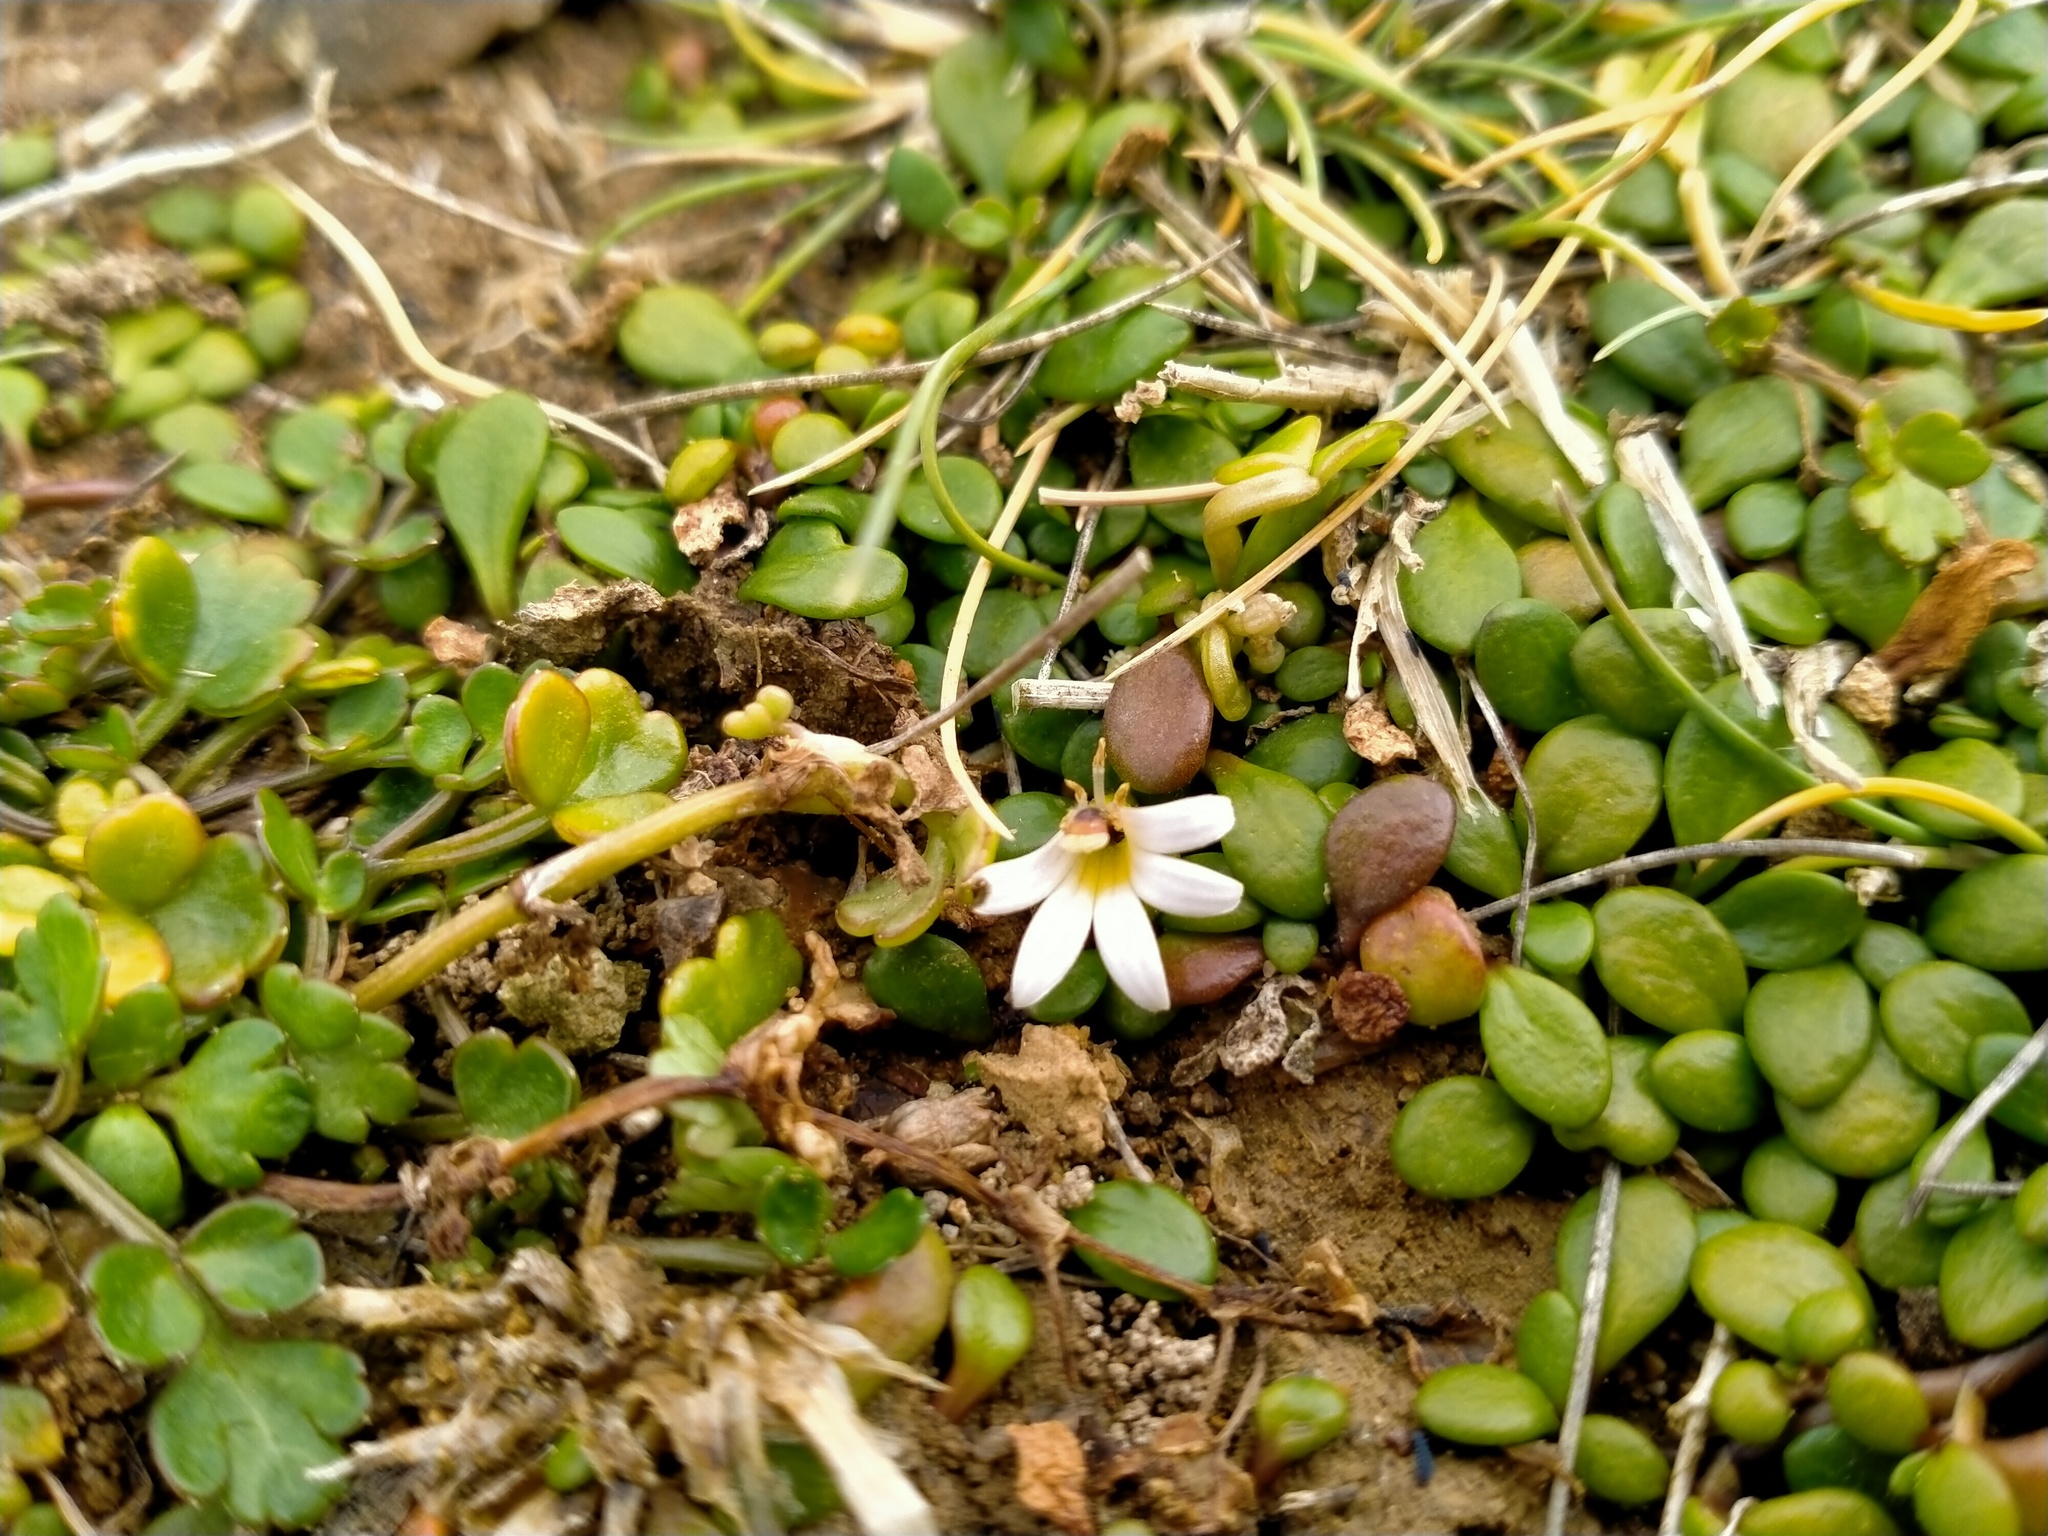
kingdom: Plantae
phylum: Tracheophyta
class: Magnoliopsida
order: Asterales
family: Goodeniaceae
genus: Goodenia
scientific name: Goodenia radicans
